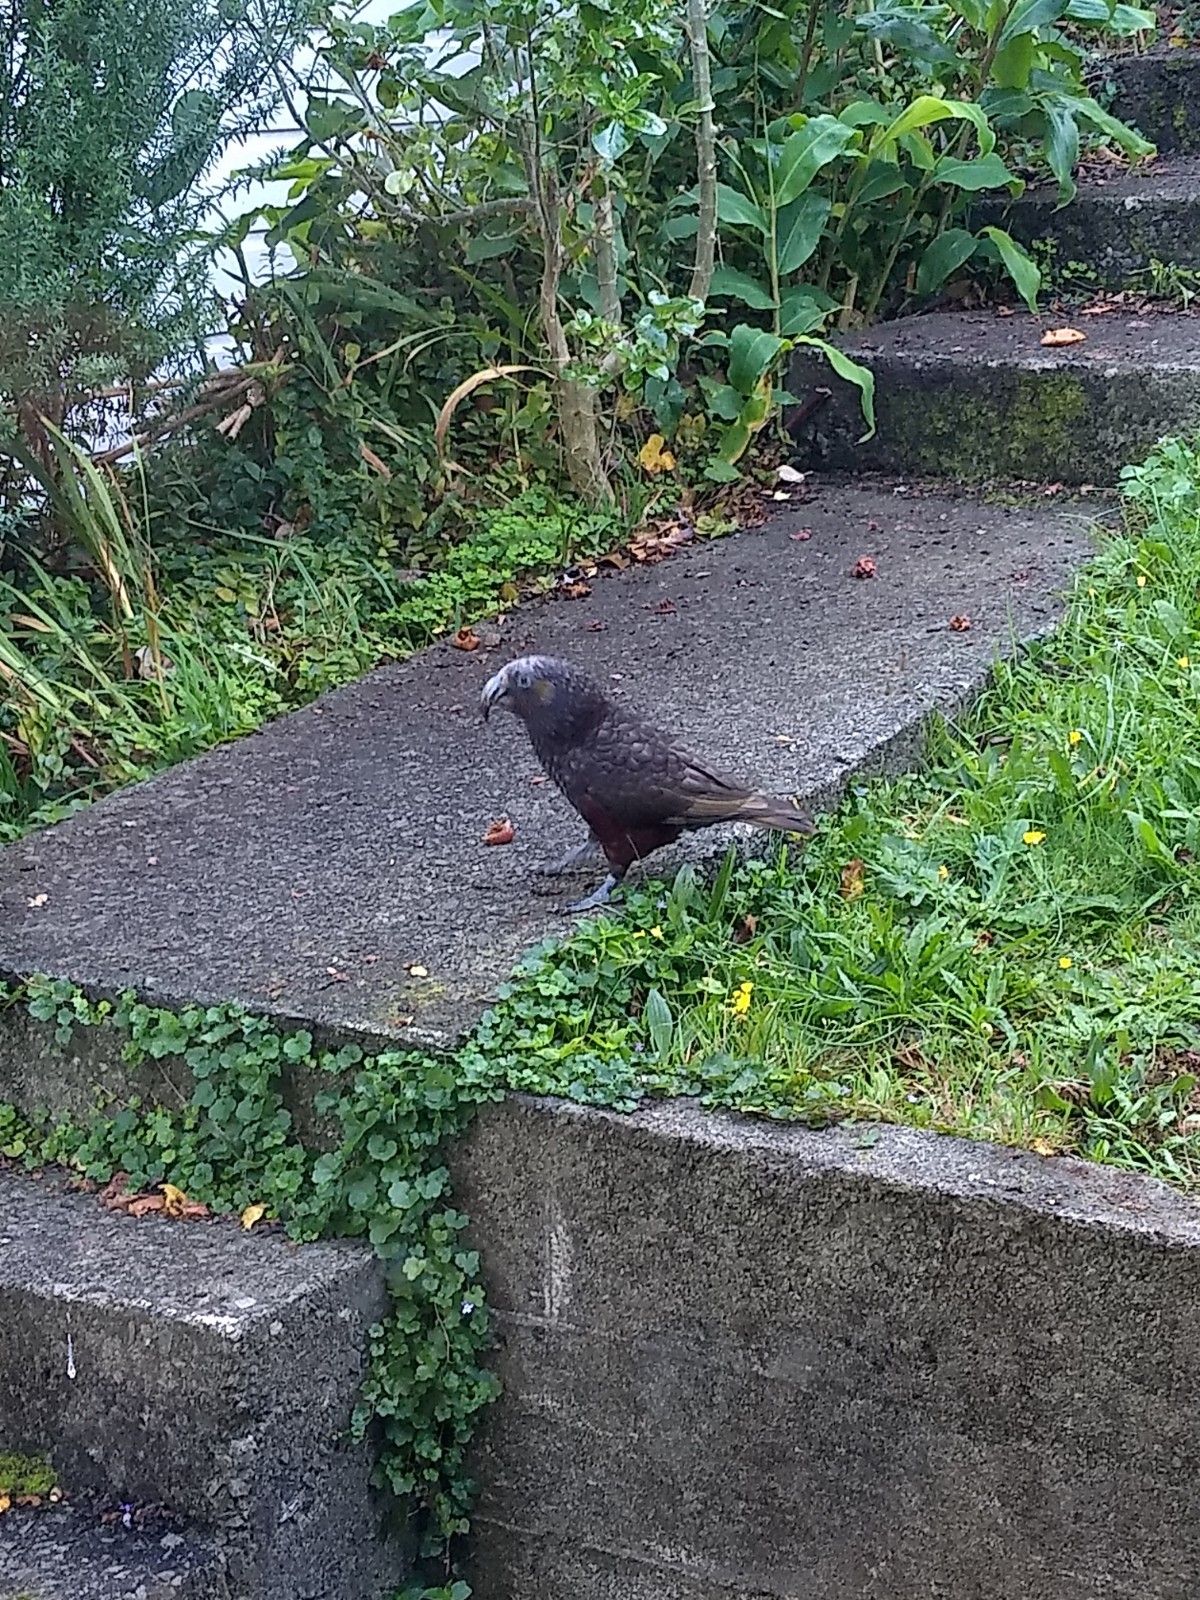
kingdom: Animalia
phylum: Chordata
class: Aves
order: Psittaciformes
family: Psittacidae
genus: Nestor
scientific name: Nestor meridionalis
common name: New zealand kaka
